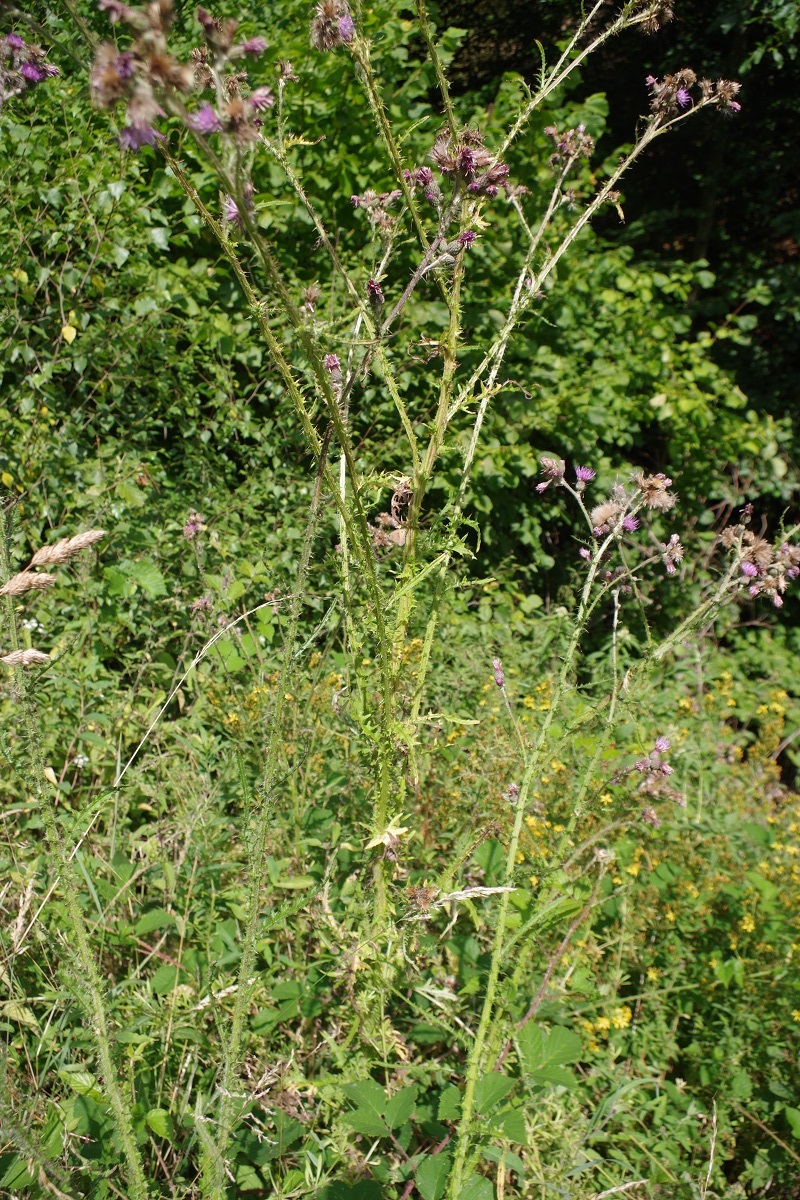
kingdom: Plantae
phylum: Tracheophyta
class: Magnoliopsida
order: Asterales
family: Asteraceae
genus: Cirsium
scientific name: Cirsium palustre
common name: Marsh thistle
